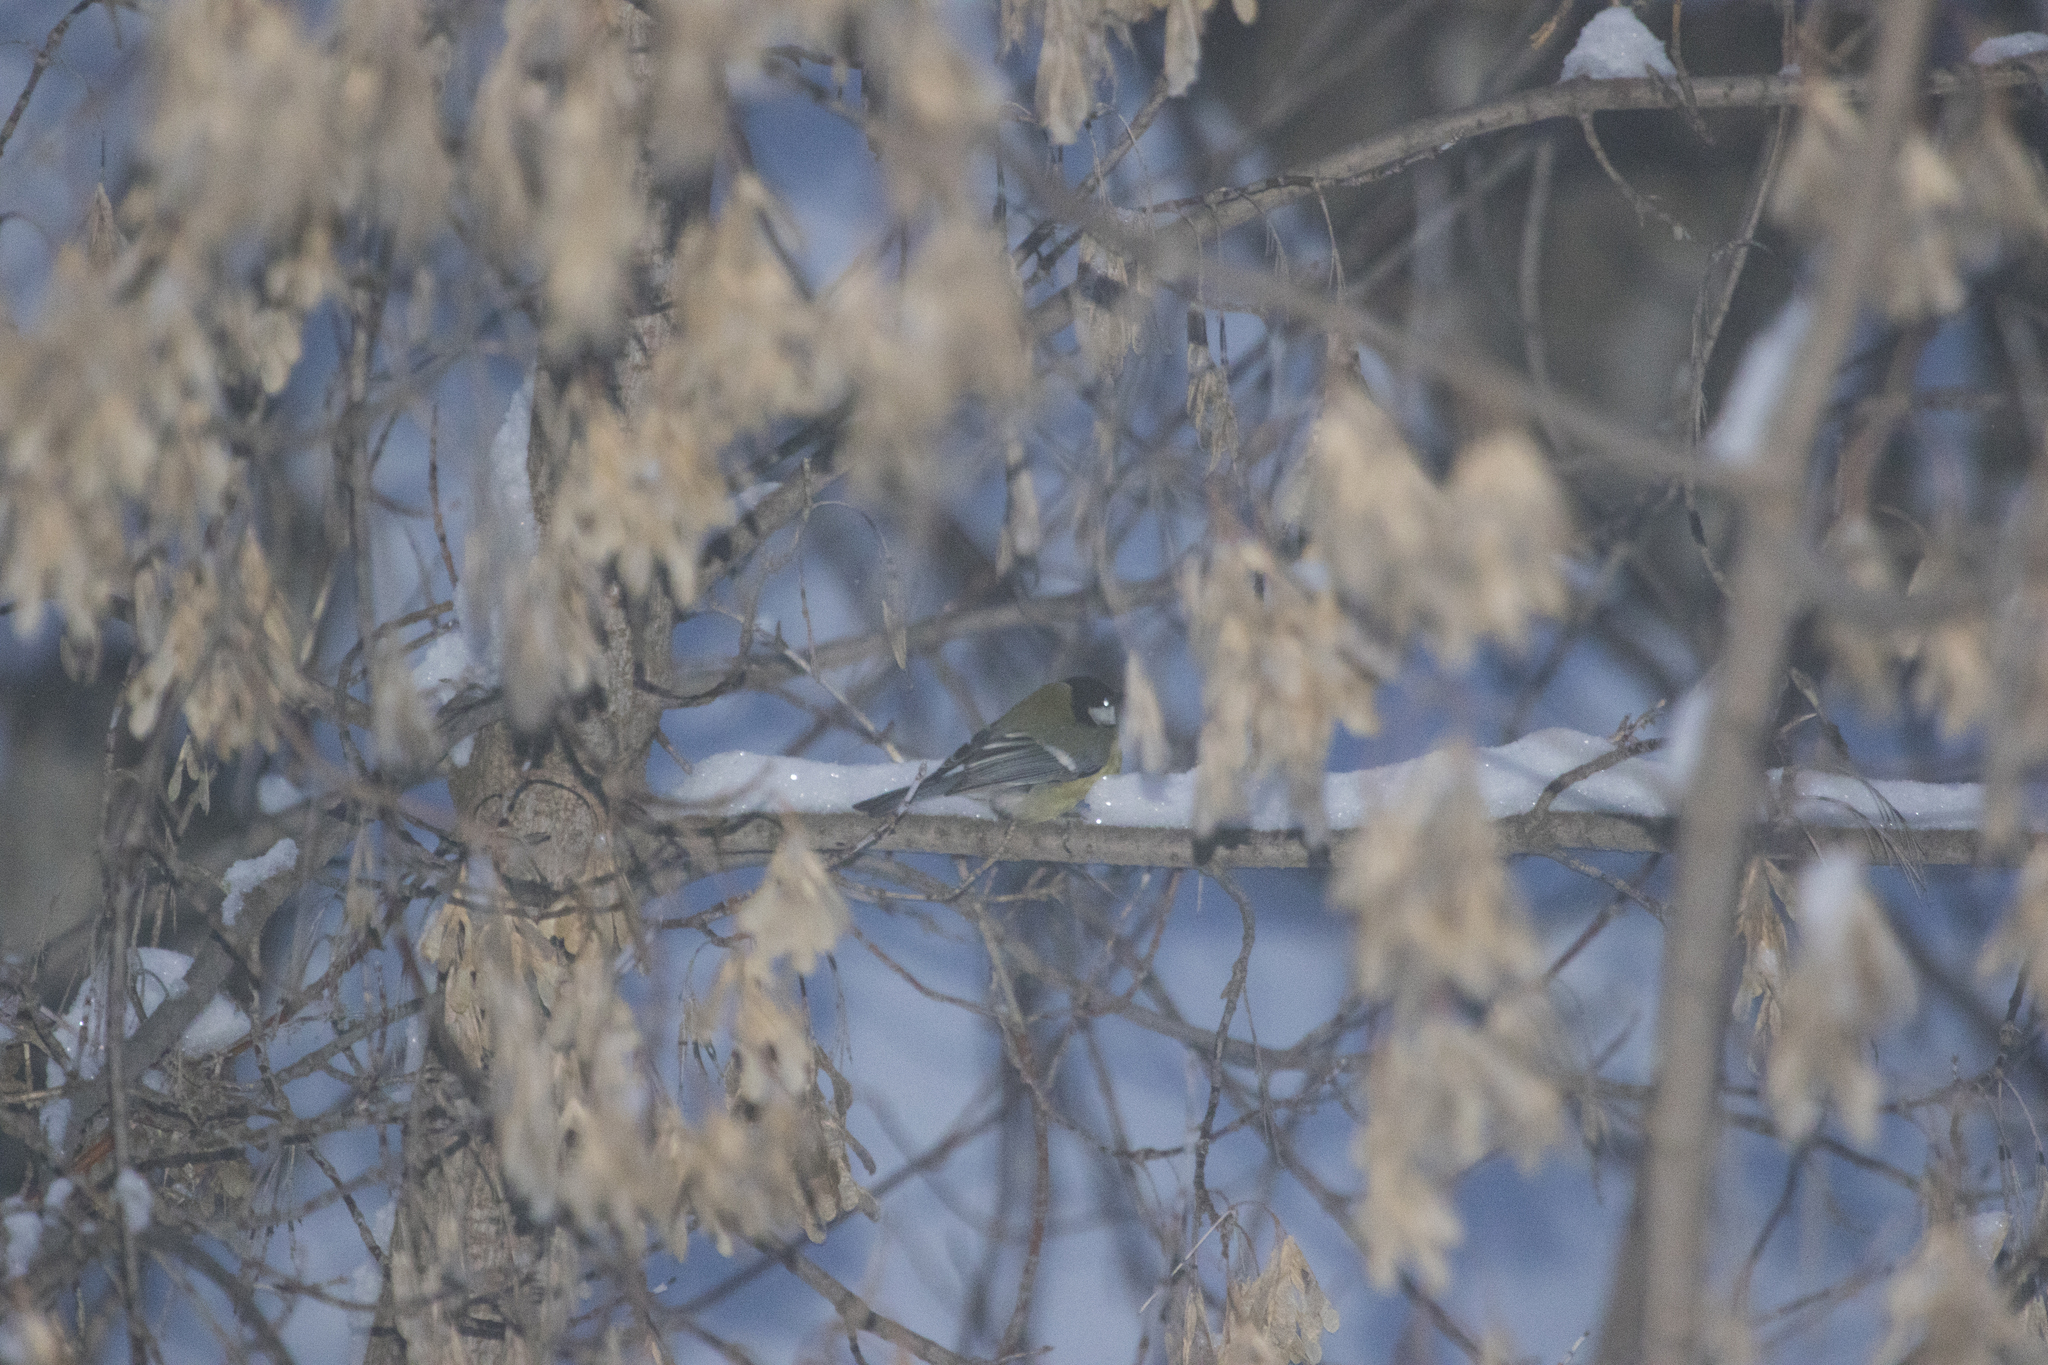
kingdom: Animalia
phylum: Chordata
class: Aves
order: Passeriformes
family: Paridae
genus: Parus
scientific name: Parus major
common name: Great tit
